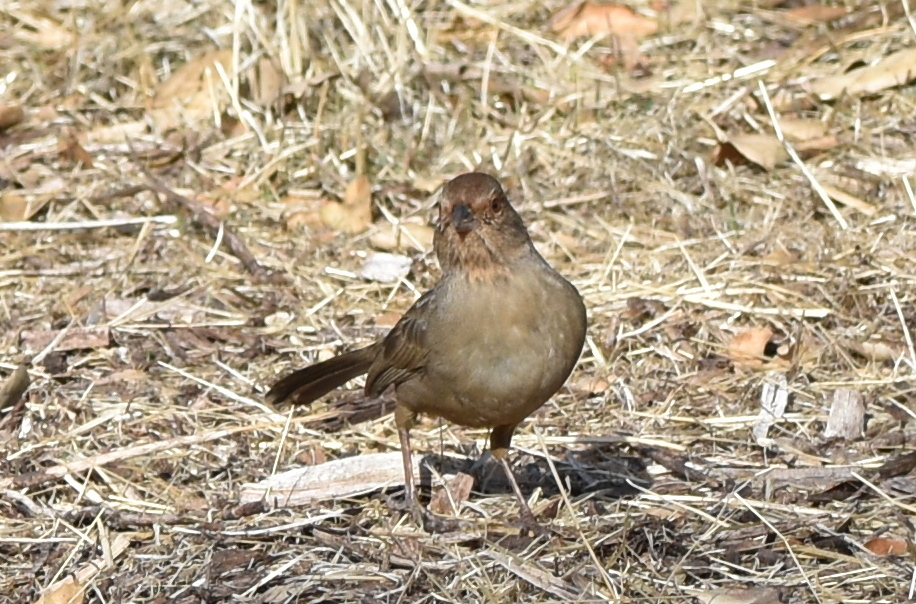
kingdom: Animalia
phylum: Chordata
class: Aves
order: Passeriformes
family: Passerellidae
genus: Melozone
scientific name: Melozone crissalis
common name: California towhee
